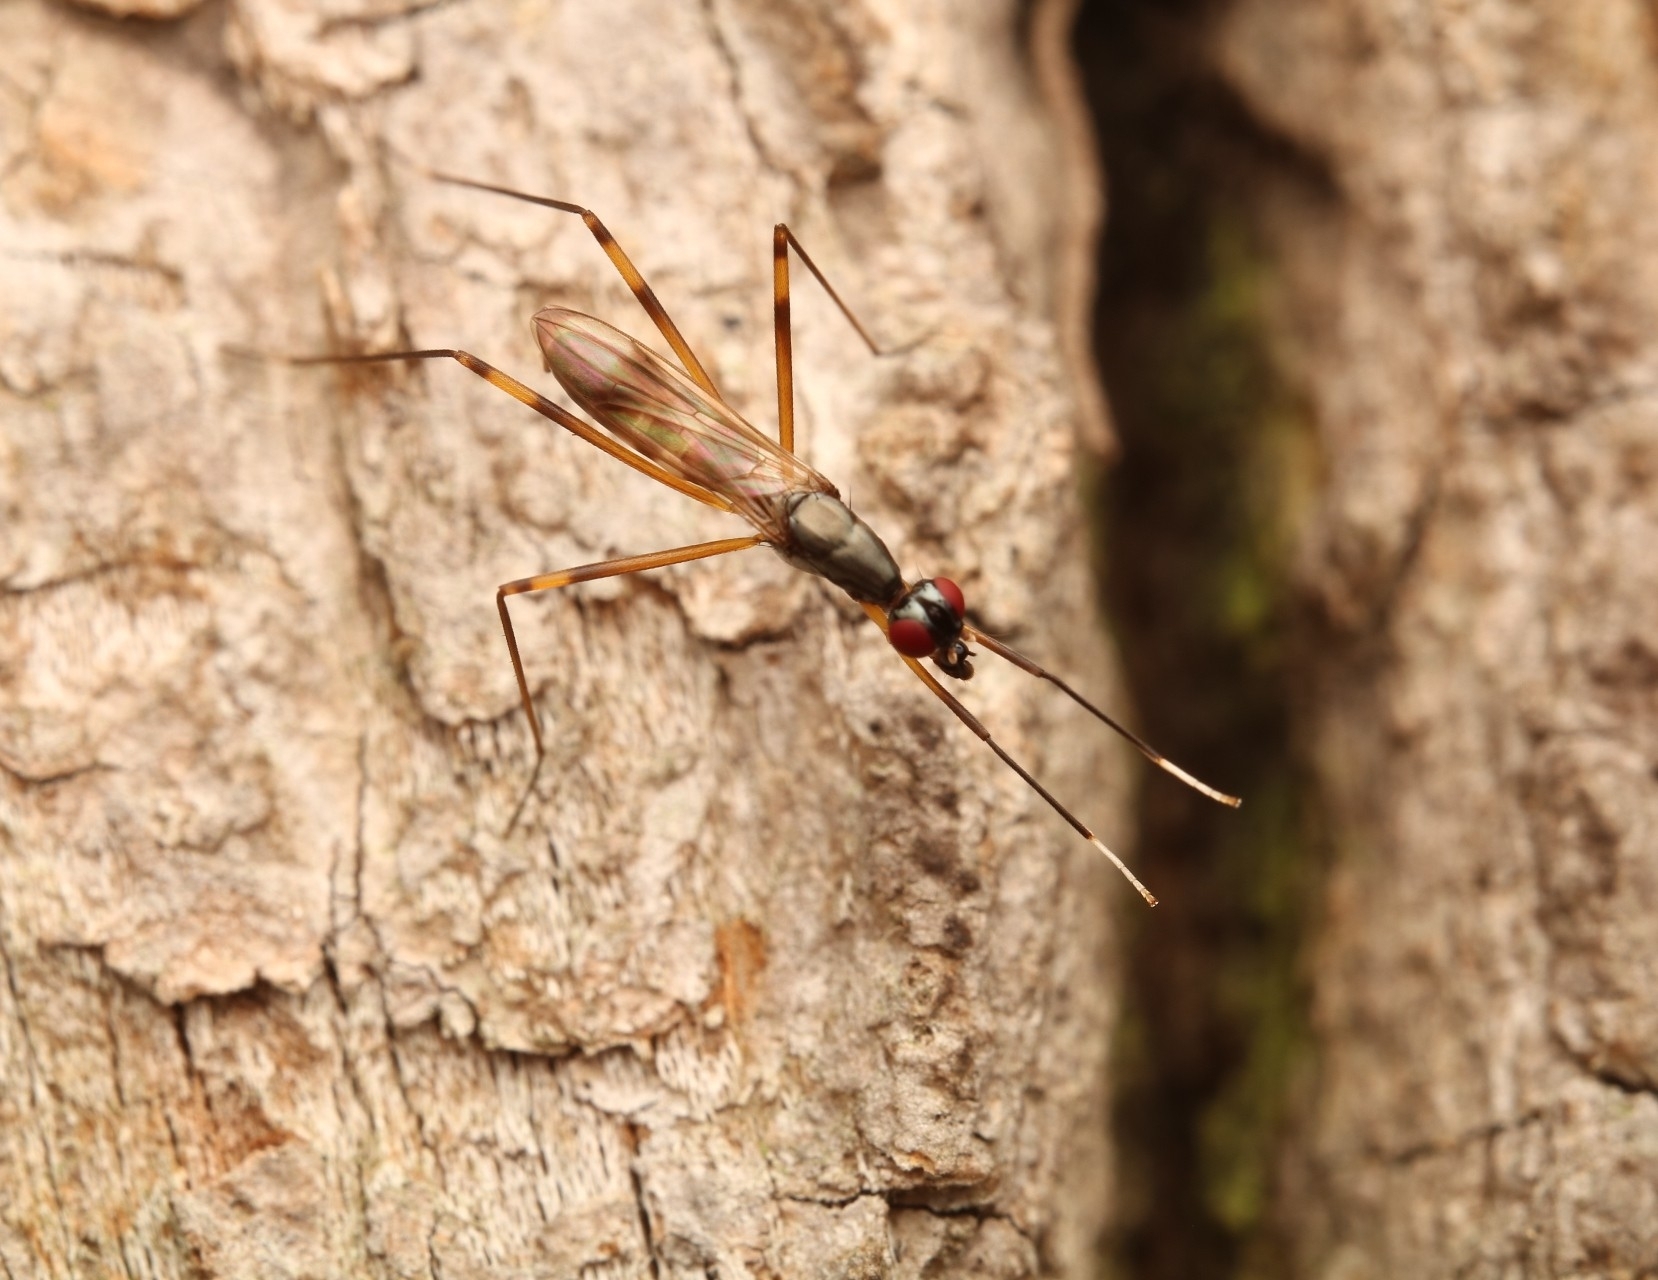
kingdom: Animalia
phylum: Arthropoda
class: Insecta
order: Diptera
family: Micropezidae
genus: Rainieria
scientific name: Rainieria antennaepes
